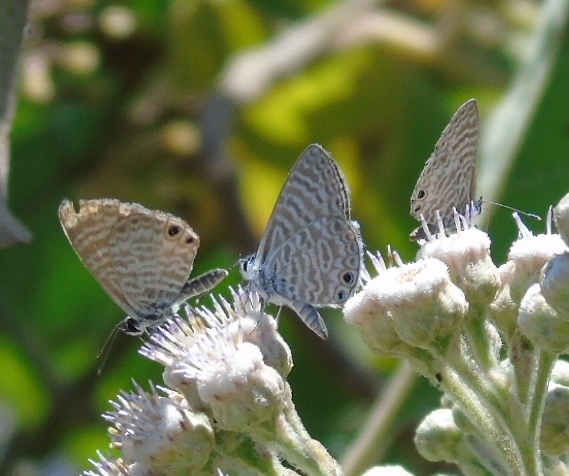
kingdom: Animalia
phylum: Arthropoda
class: Insecta
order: Lepidoptera
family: Lycaenidae
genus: Leptotes
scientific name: Leptotes marina
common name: Marine blue
